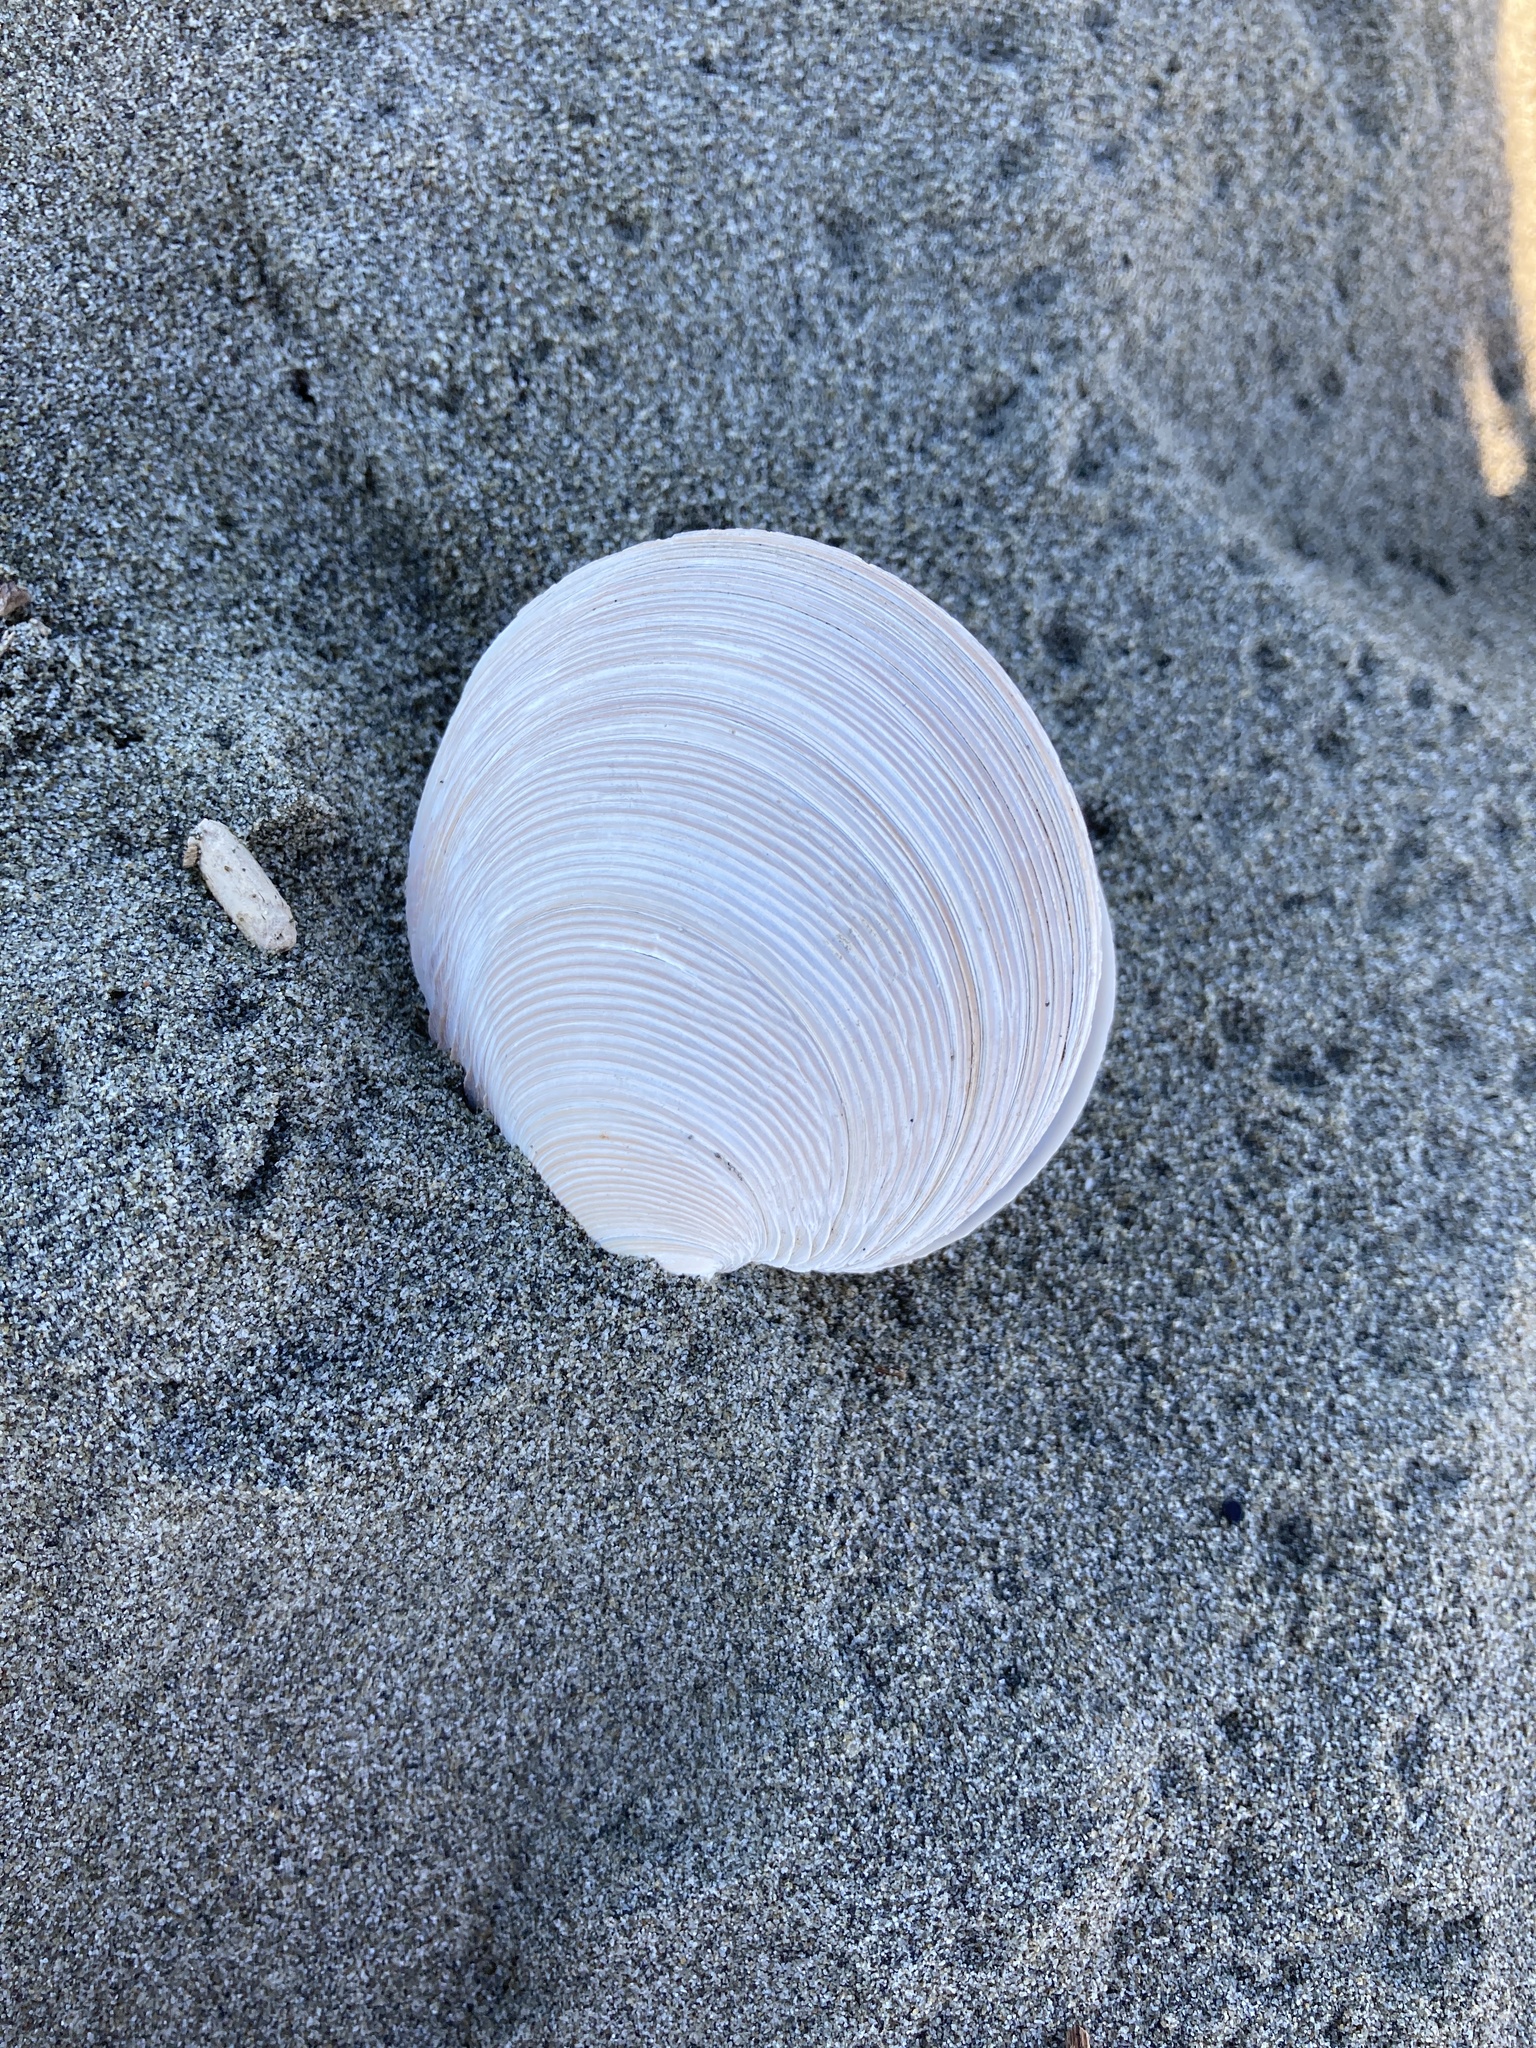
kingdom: Animalia
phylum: Mollusca
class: Bivalvia
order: Venerida
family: Veneridae
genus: Dosinia
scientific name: Dosinia anus
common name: Old-woman dosinia
